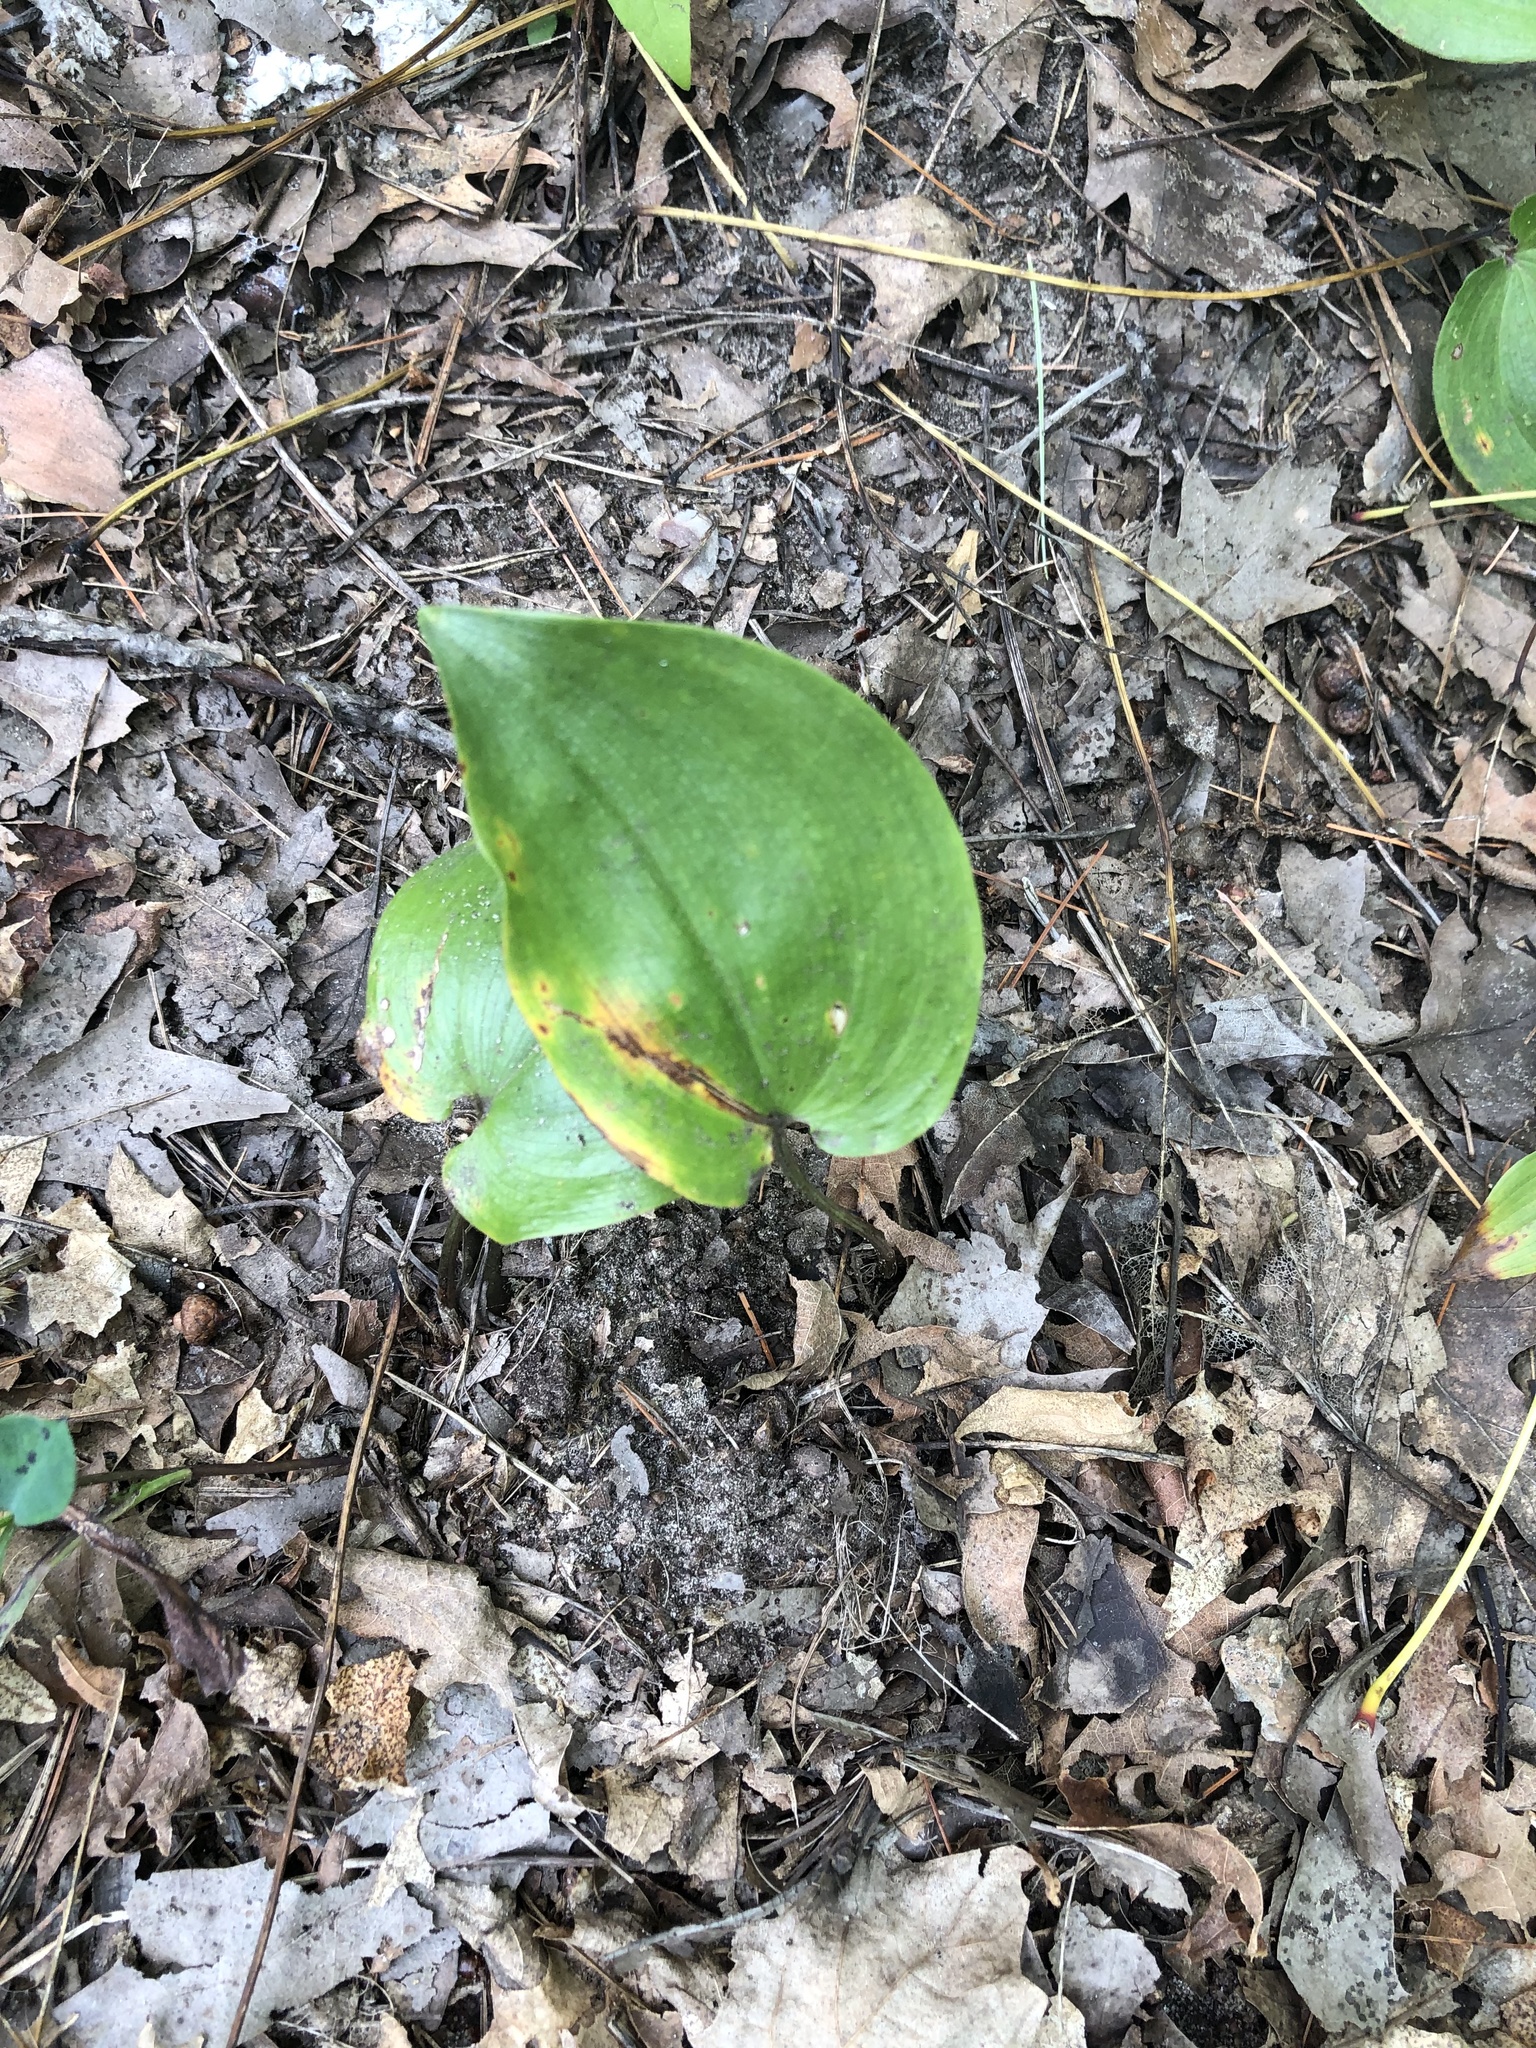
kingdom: Plantae
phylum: Tracheophyta
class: Liliopsida
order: Asparagales
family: Asparagaceae
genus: Maianthemum
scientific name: Maianthemum canadense
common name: False lily-of-the-valley
